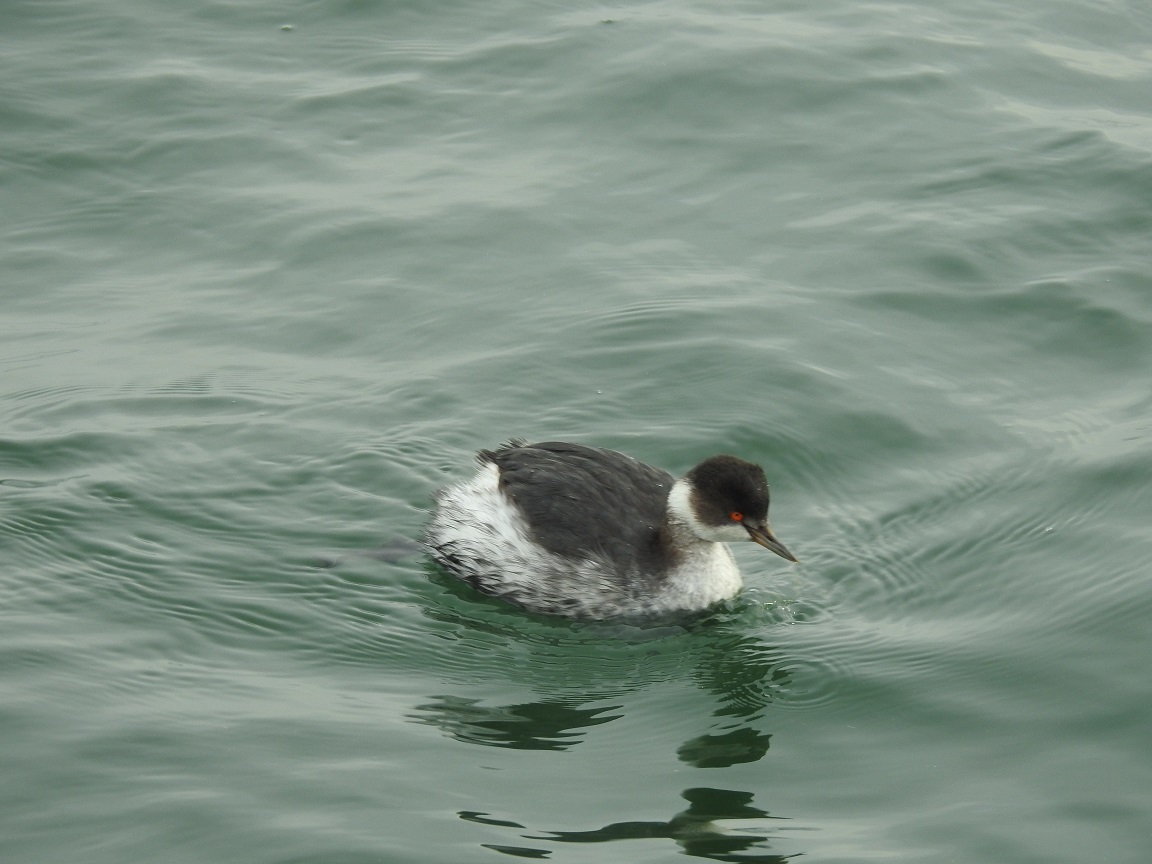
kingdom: Animalia
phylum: Chordata
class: Aves
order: Podicipediformes
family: Podicipedidae
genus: Podiceps
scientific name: Podiceps nigricollis
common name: Black-necked grebe
